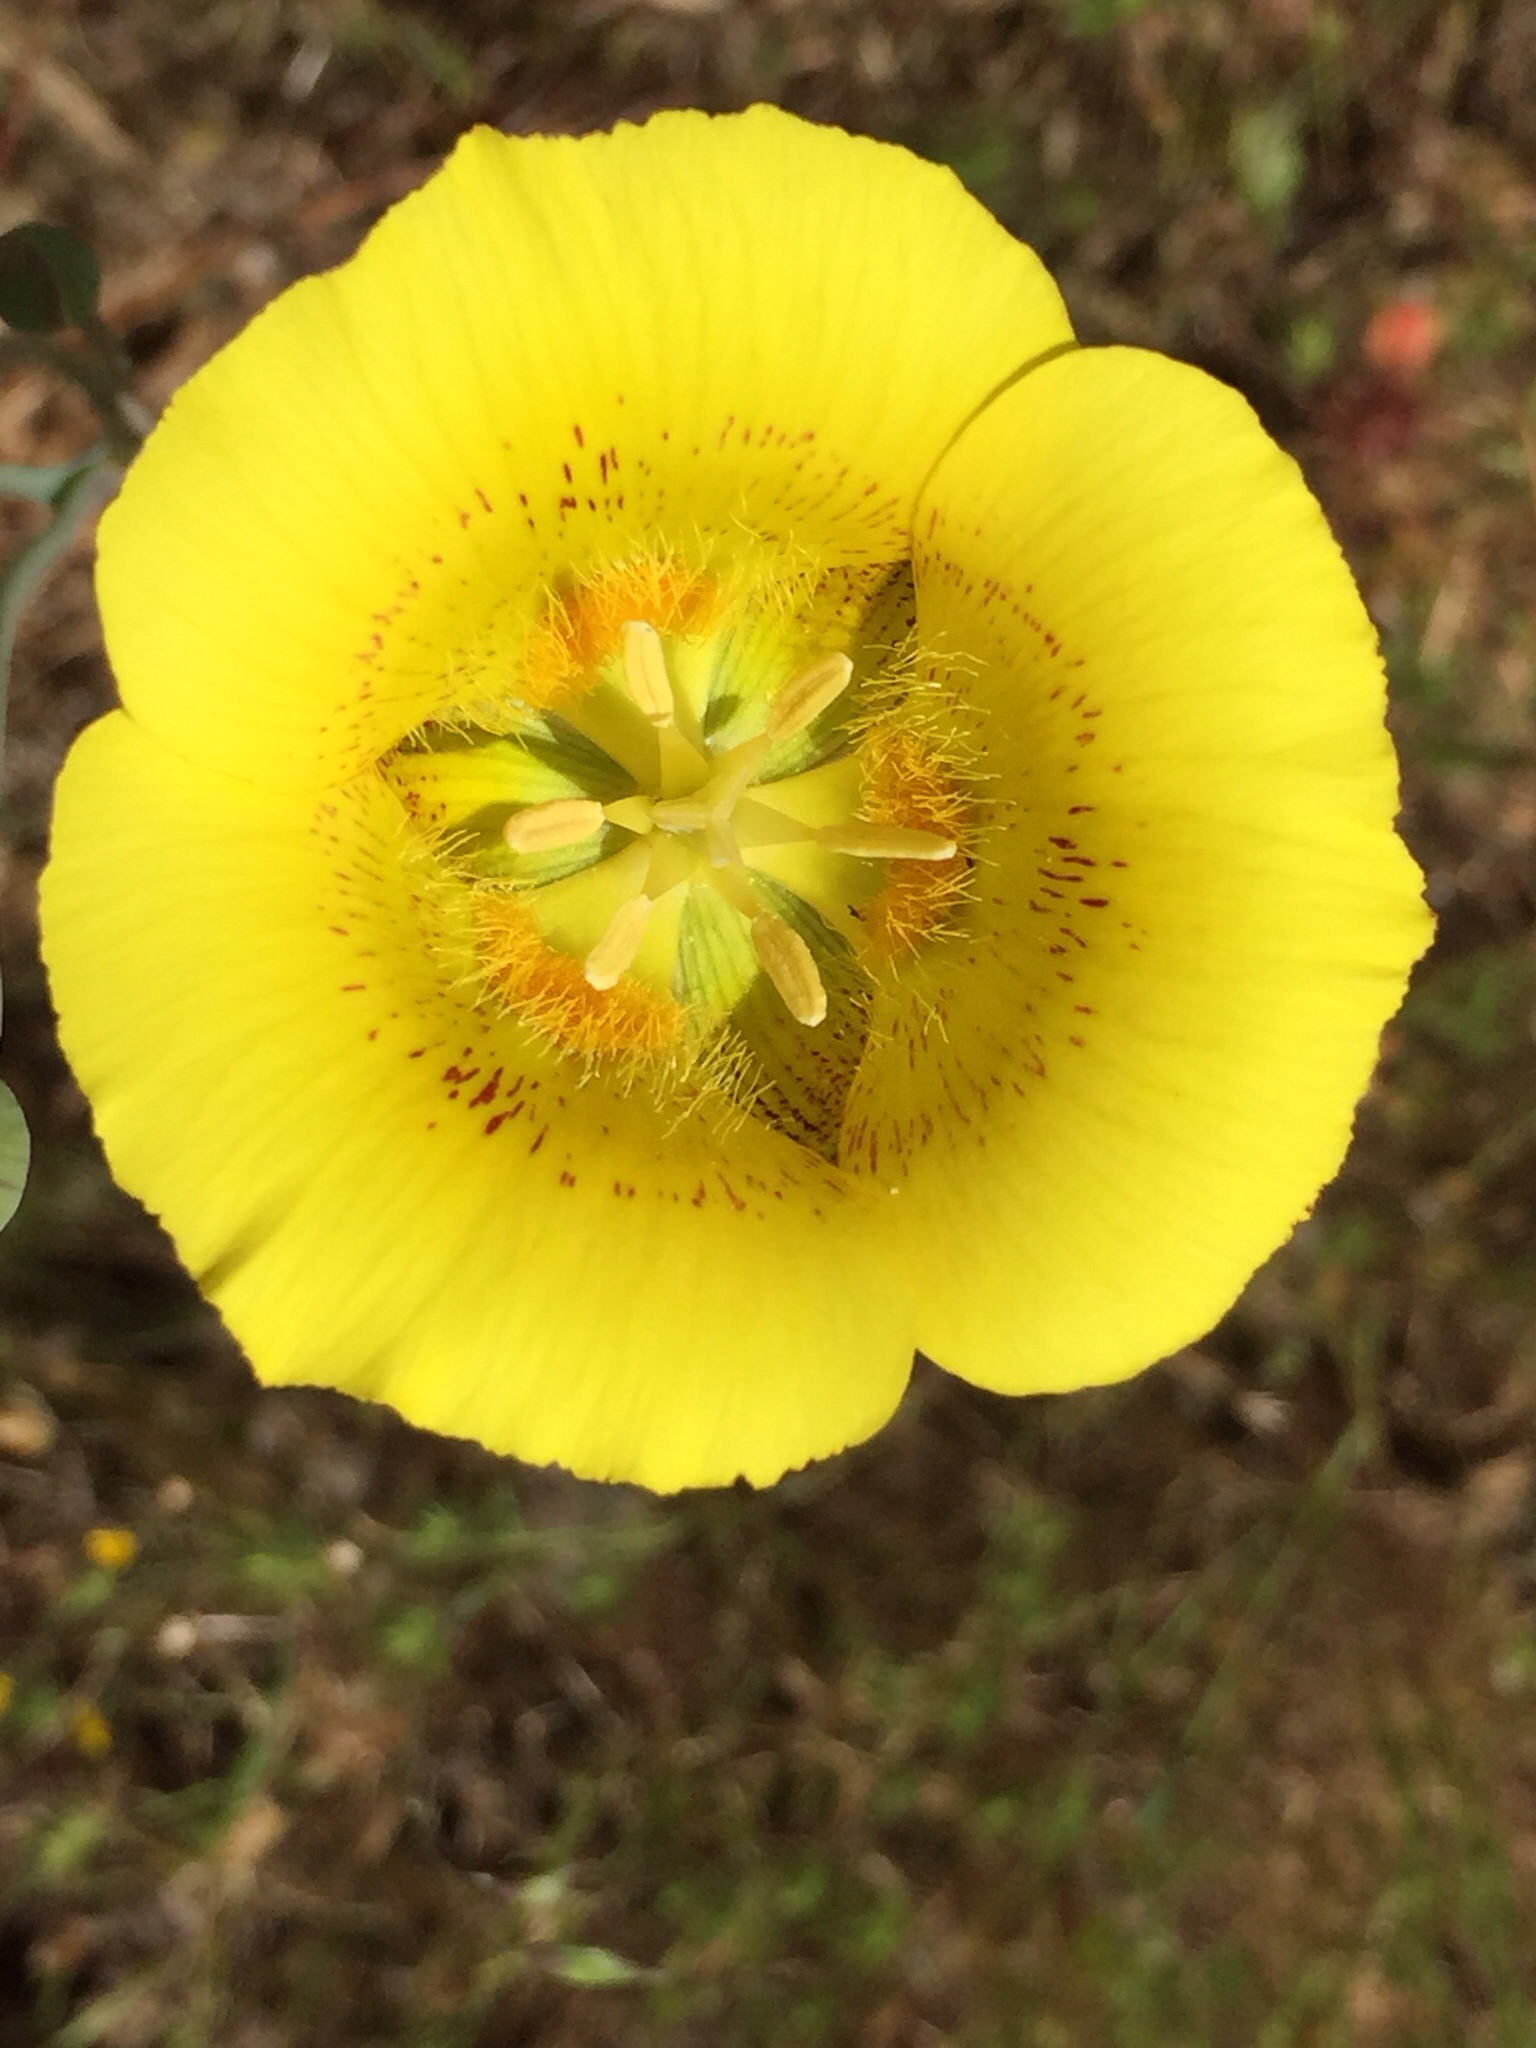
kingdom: Plantae
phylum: Tracheophyta
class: Liliopsida
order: Liliales
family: Liliaceae
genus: Calochortus
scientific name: Calochortus luteus
